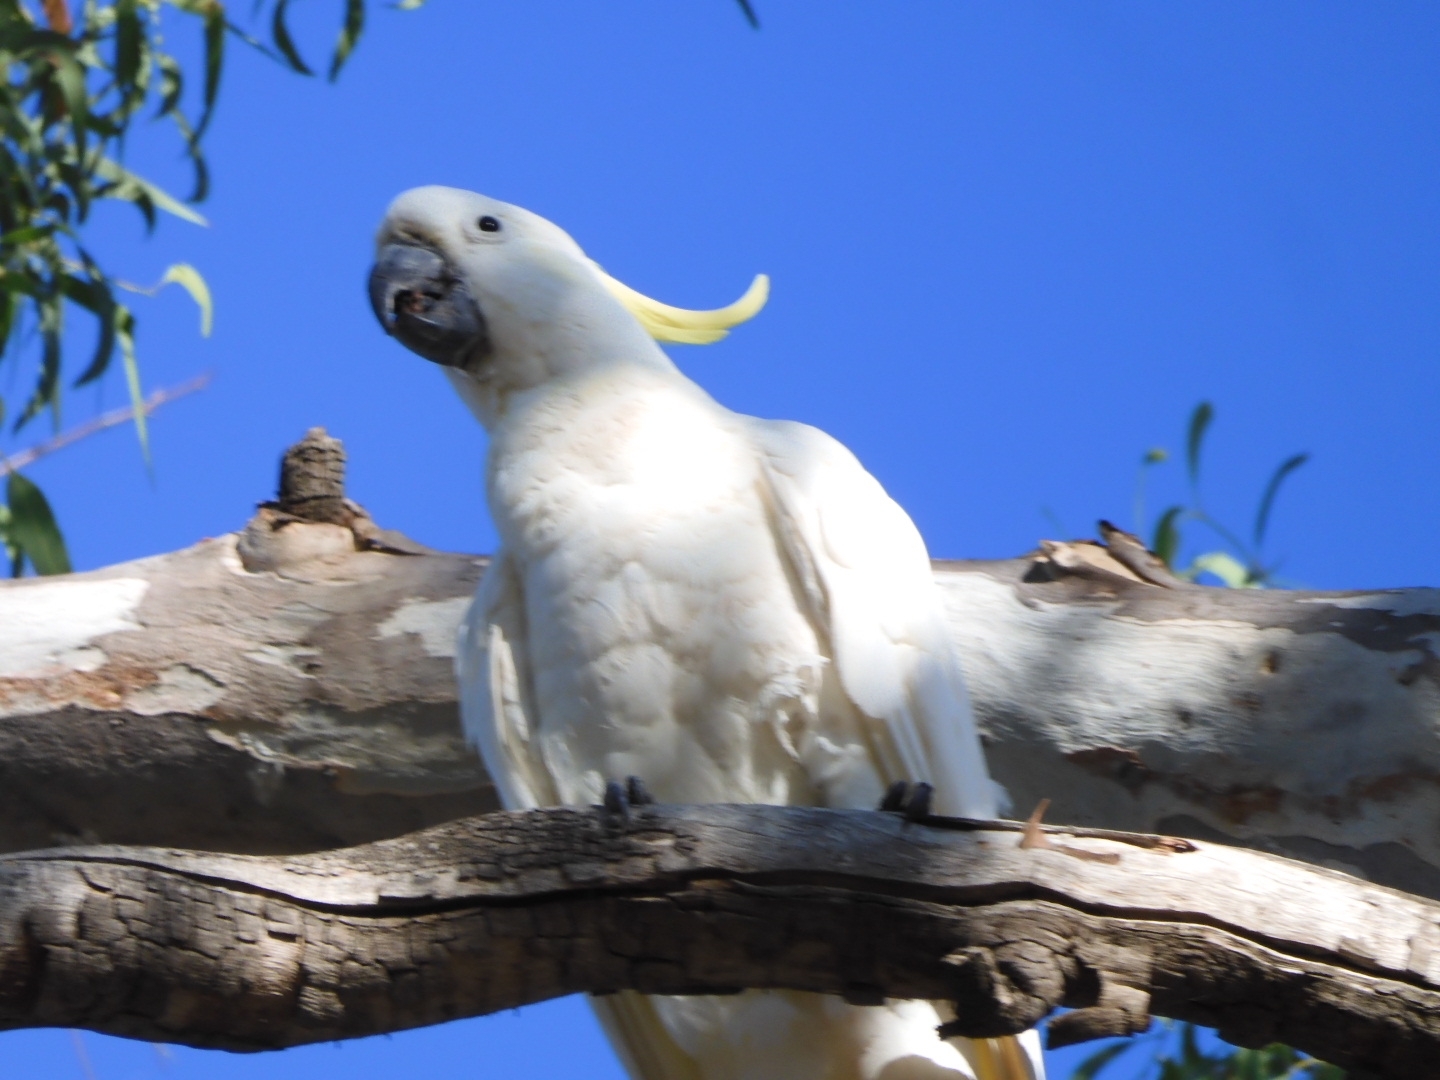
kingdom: Animalia
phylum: Chordata
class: Aves
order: Psittaciformes
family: Psittacidae
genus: Cacatua
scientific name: Cacatua galerita
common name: Sulphur-crested cockatoo
